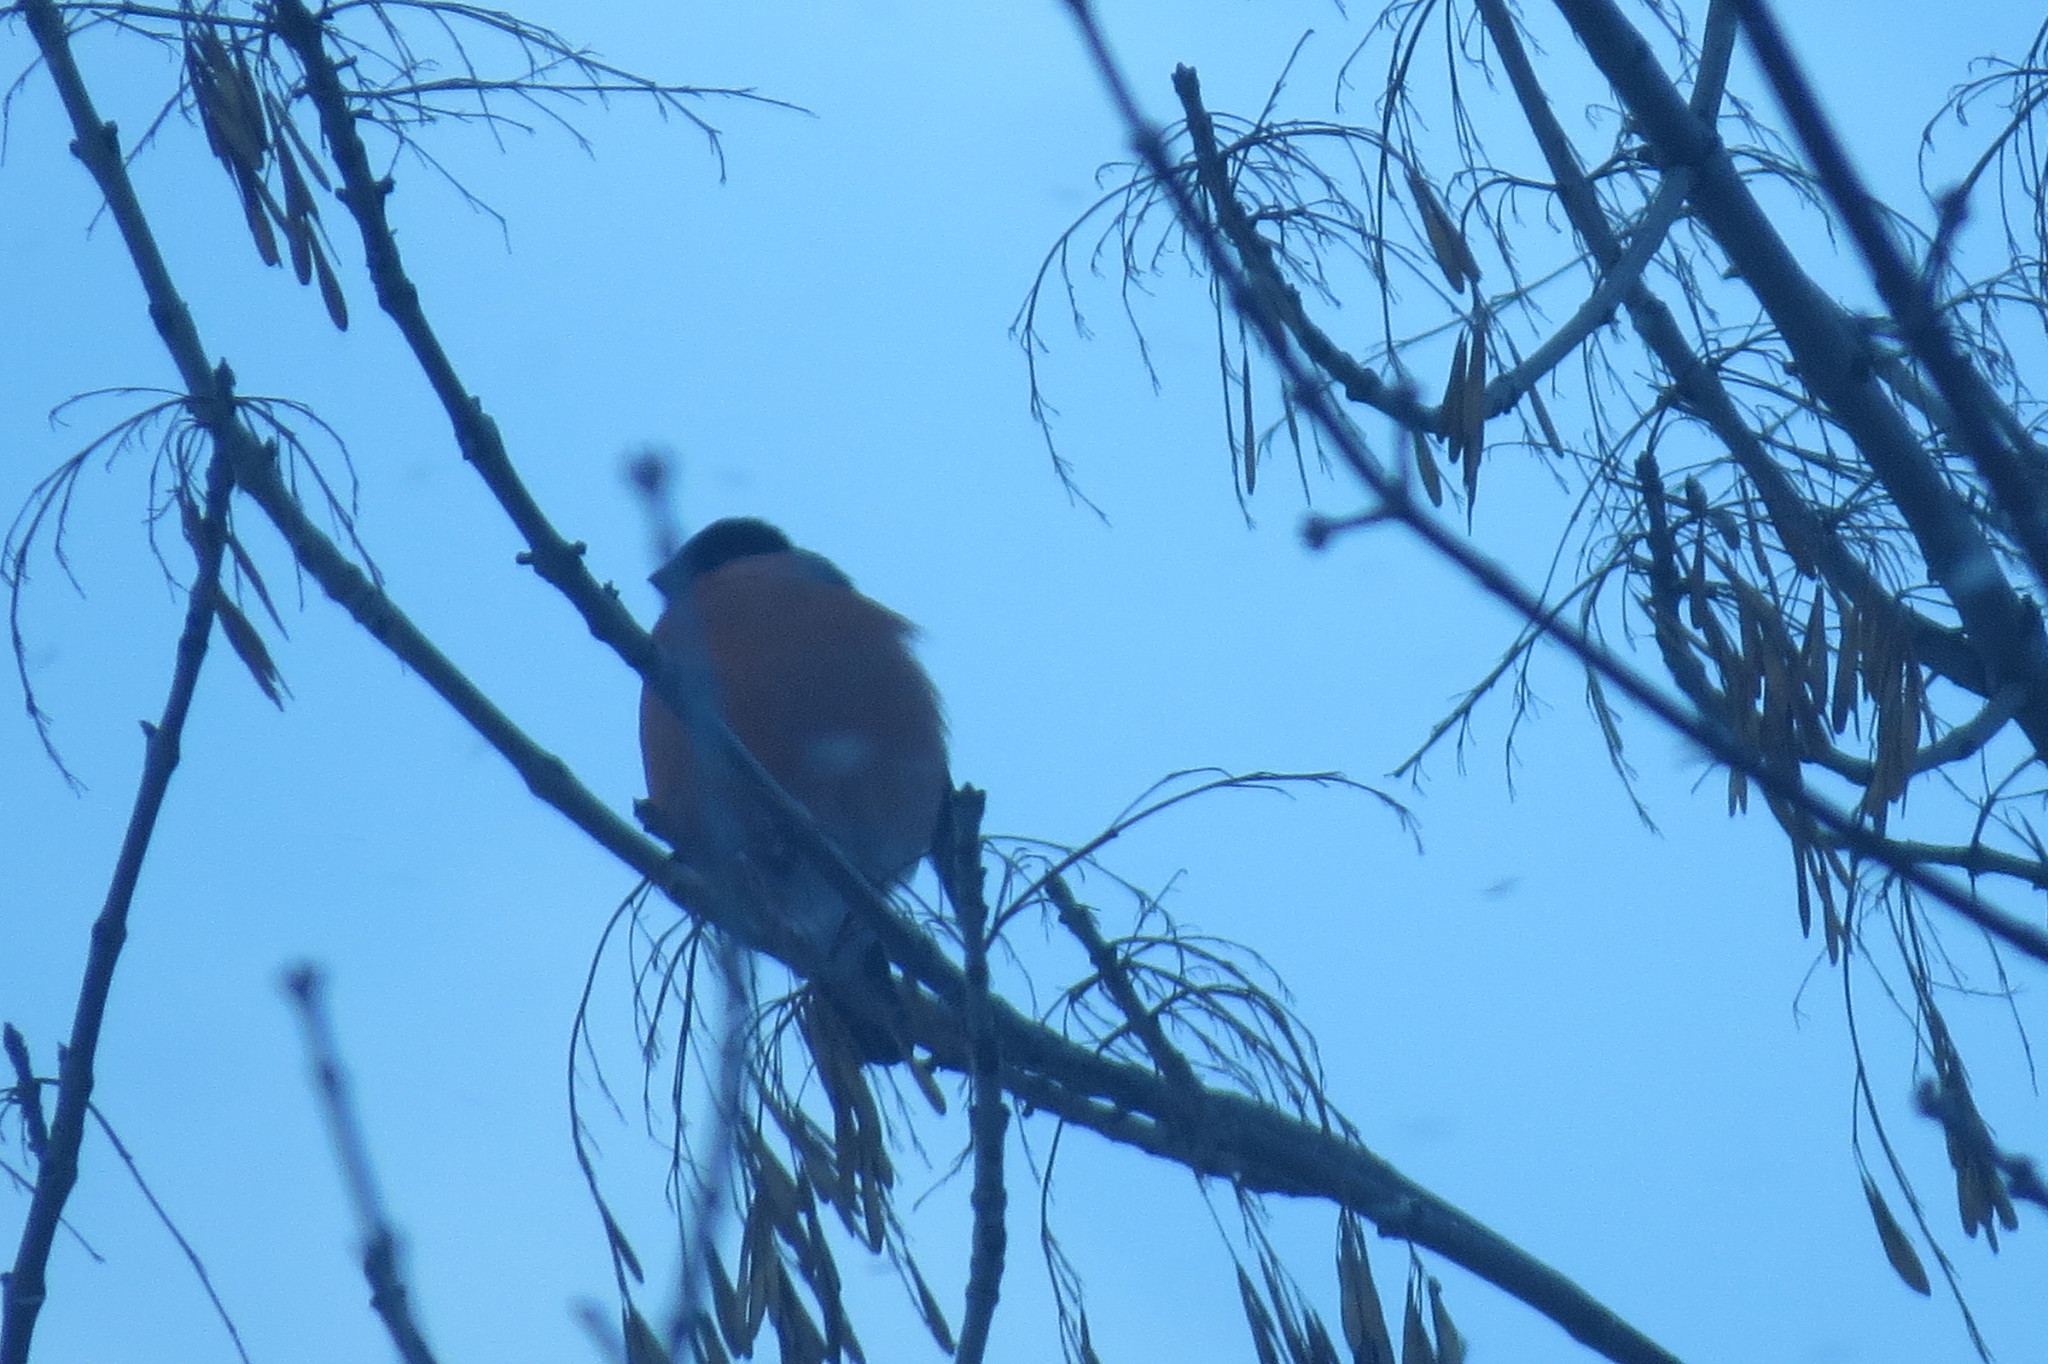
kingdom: Animalia
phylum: Chordata
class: Aves
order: Passeriformes
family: Fringillidae
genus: Pyrrhula
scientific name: Pyrrhula pyrrhula
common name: Eurasian bullfinch
